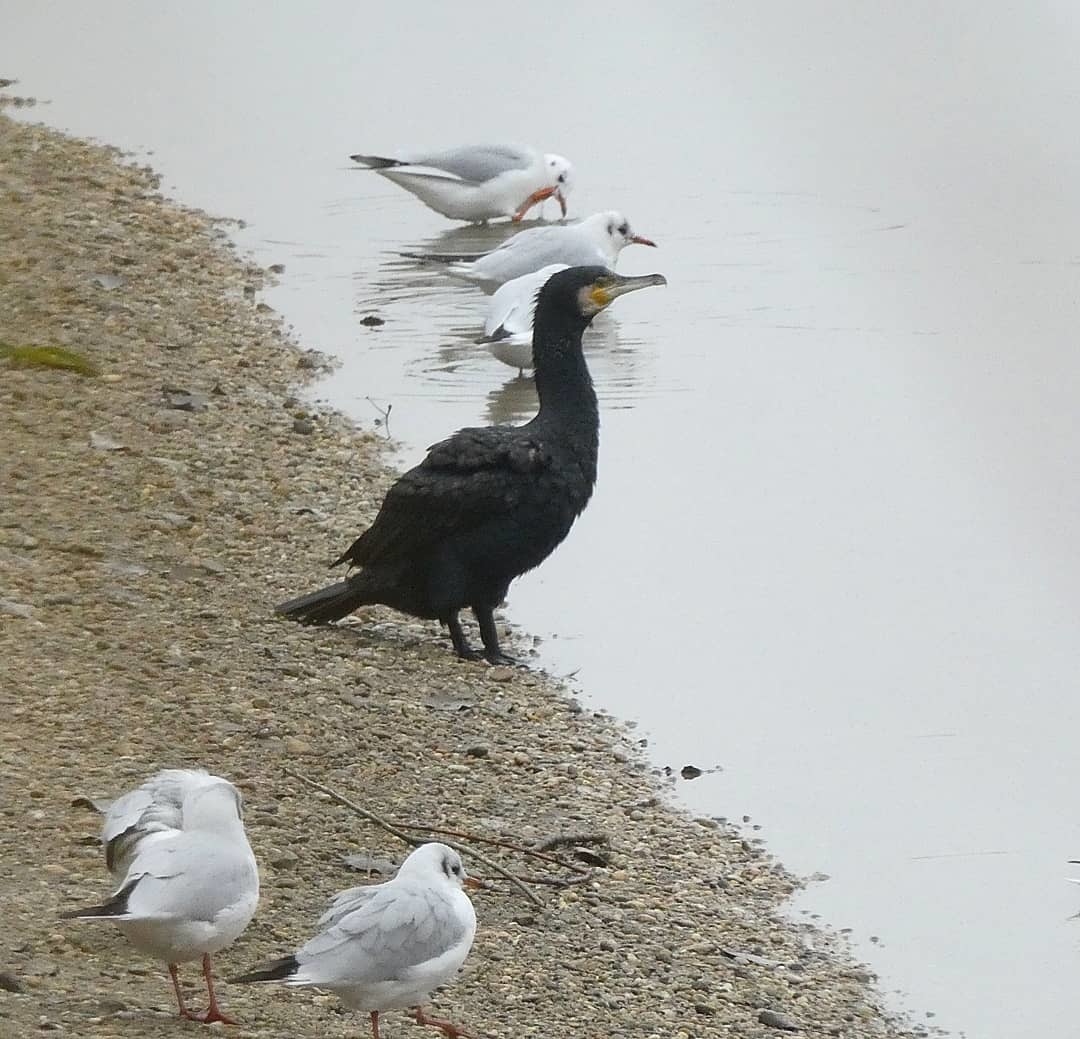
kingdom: Animalia
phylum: Chordata
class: Aves
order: Suliformes
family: Phalacrocoracidae
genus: Phalacrocorax
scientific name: Phalacrocorax carbo
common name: Great cormorant
